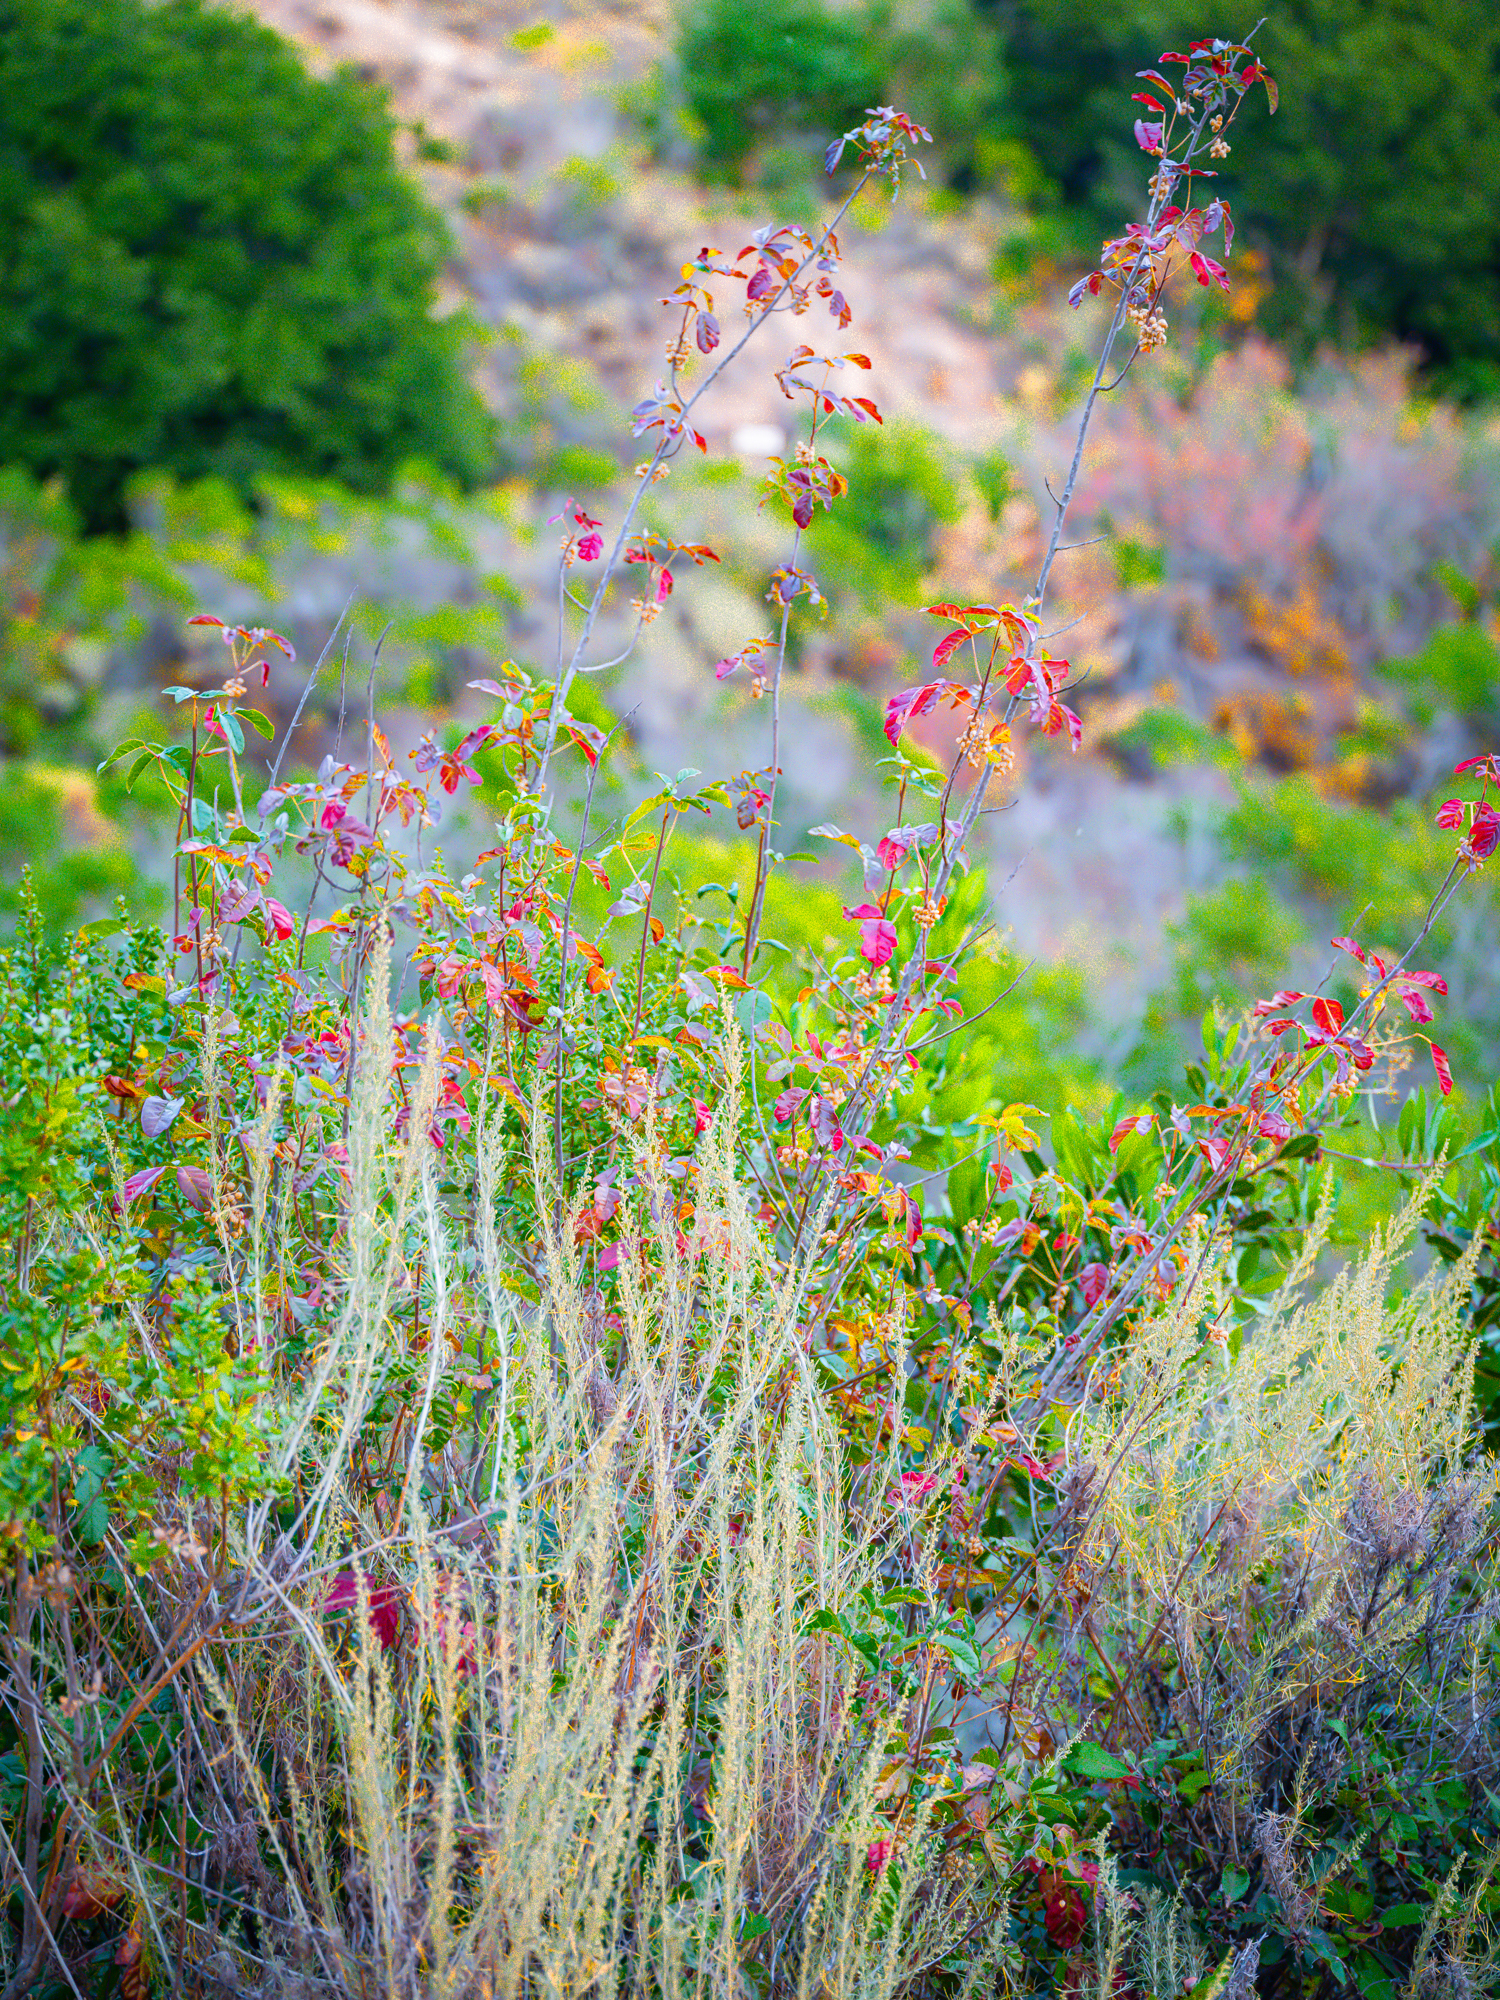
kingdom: Plantae
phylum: Tracheophyta
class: Magnoliopsida
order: Sapindales
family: Anacardiaceae
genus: Toxicodendron
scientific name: Toxicodendron diversilobum
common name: Pacific poison-oak
